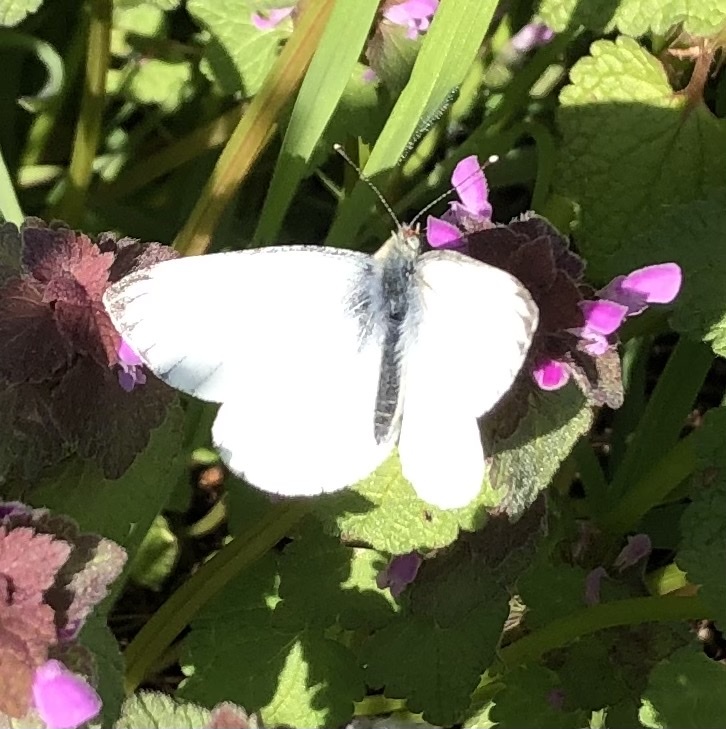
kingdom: Animalia
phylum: Arthropoda
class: Insecta
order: Lepidoptera
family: Pieridae
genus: Pieris
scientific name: Pieris napi
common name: Green-veined white
